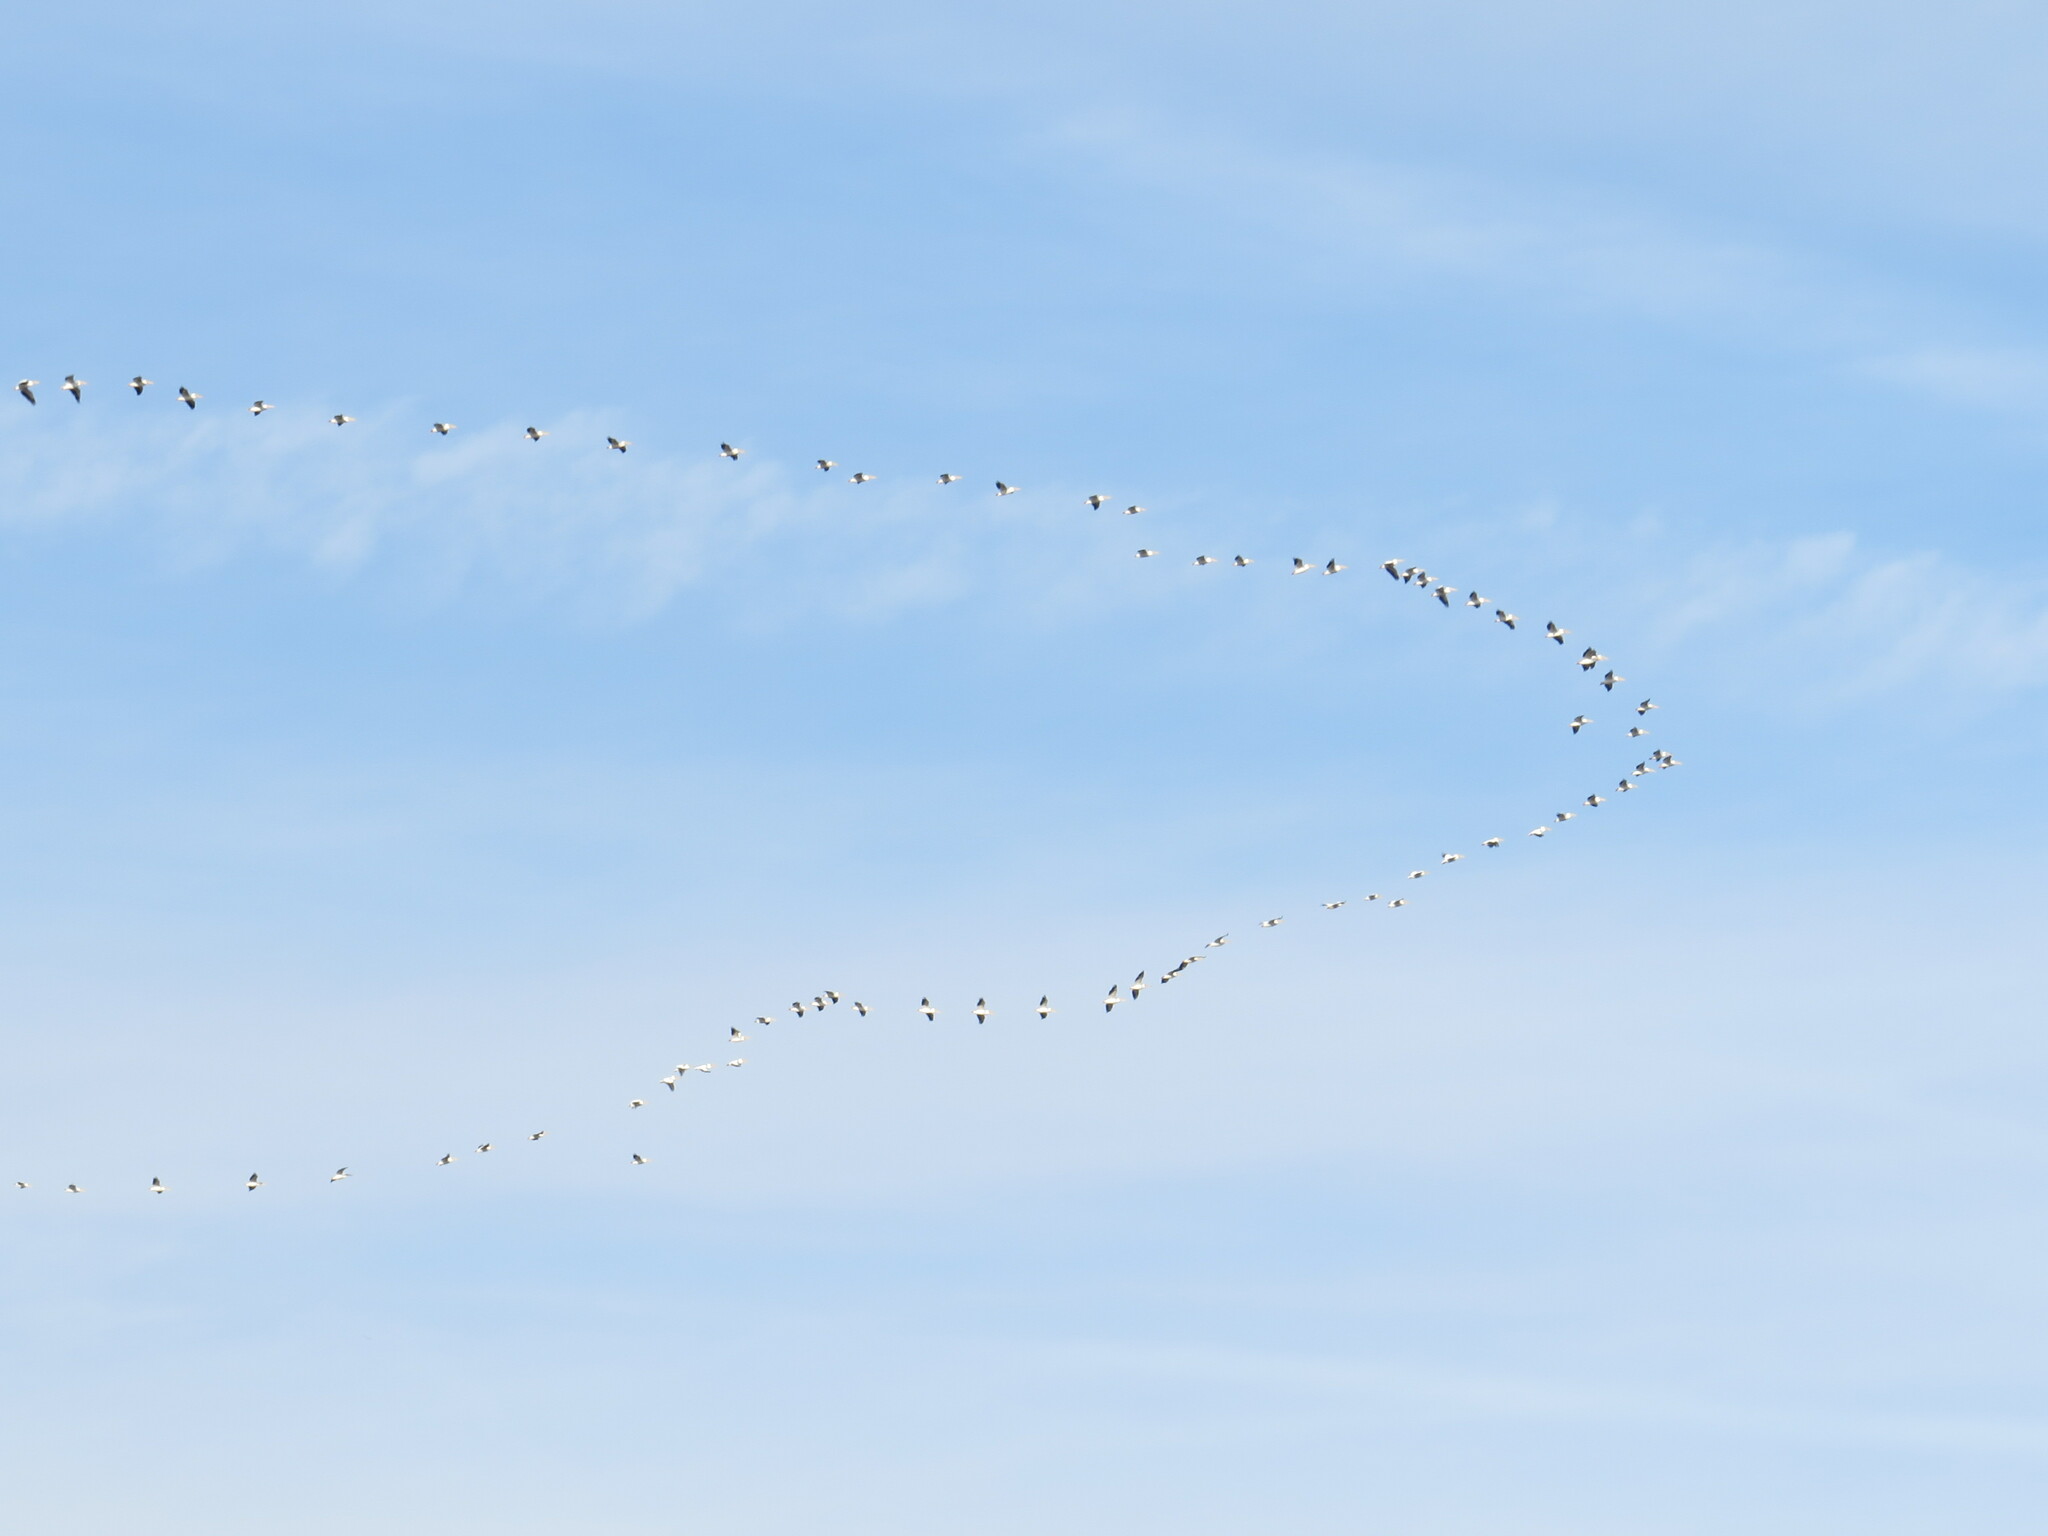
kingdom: Animalia
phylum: Chordata
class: Aves
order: Pelecaniformes
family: Pelecanidae
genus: Pelecanus
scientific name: Pelecanus erythrorhynchos
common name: American white pelican
